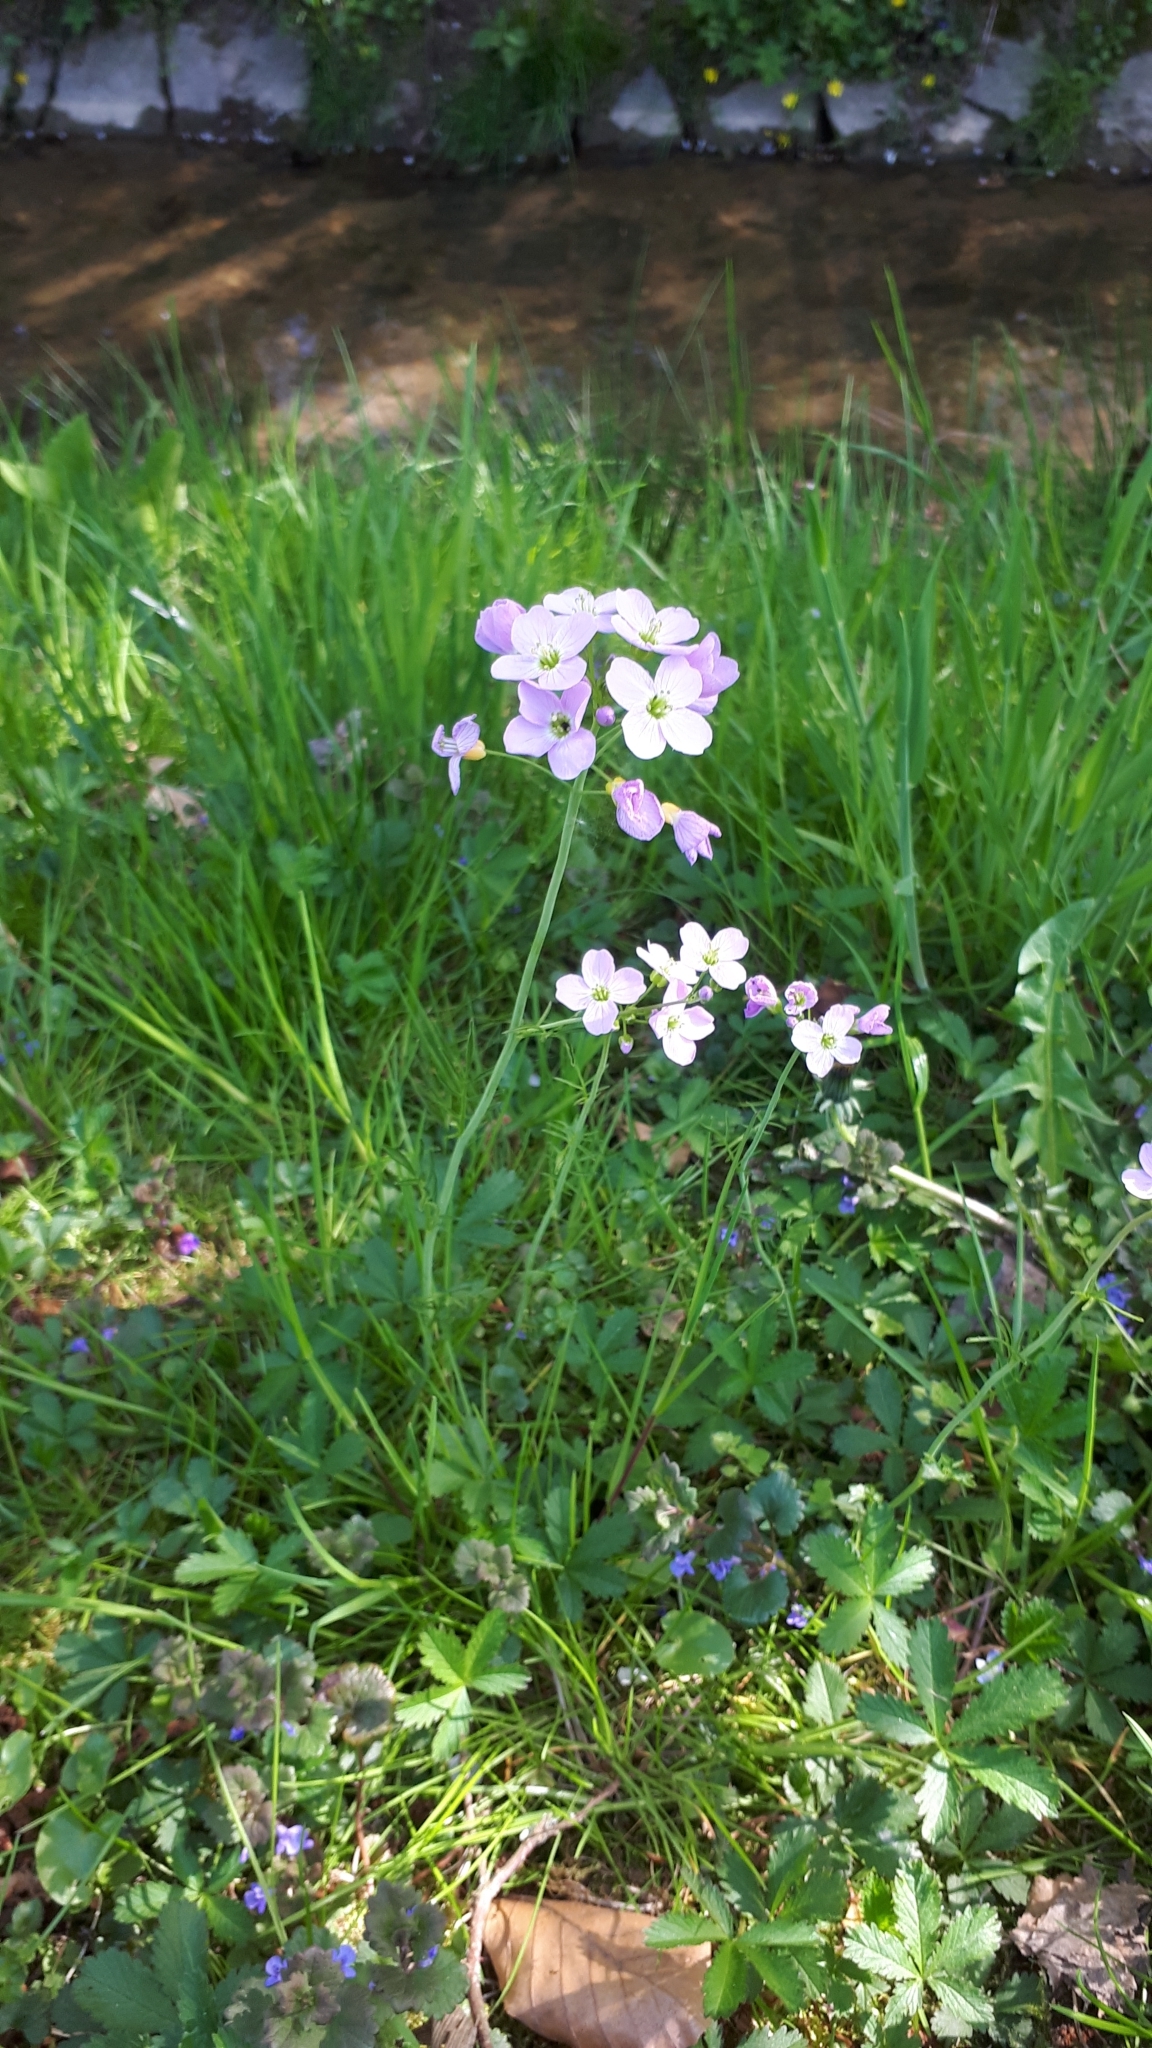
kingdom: Plantae
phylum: Tracheophyta
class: Magnoliopsida
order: Brassicales
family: Brassicaceae
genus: Cardamine
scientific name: Cardamine pratensis
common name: Cuckoo flower
